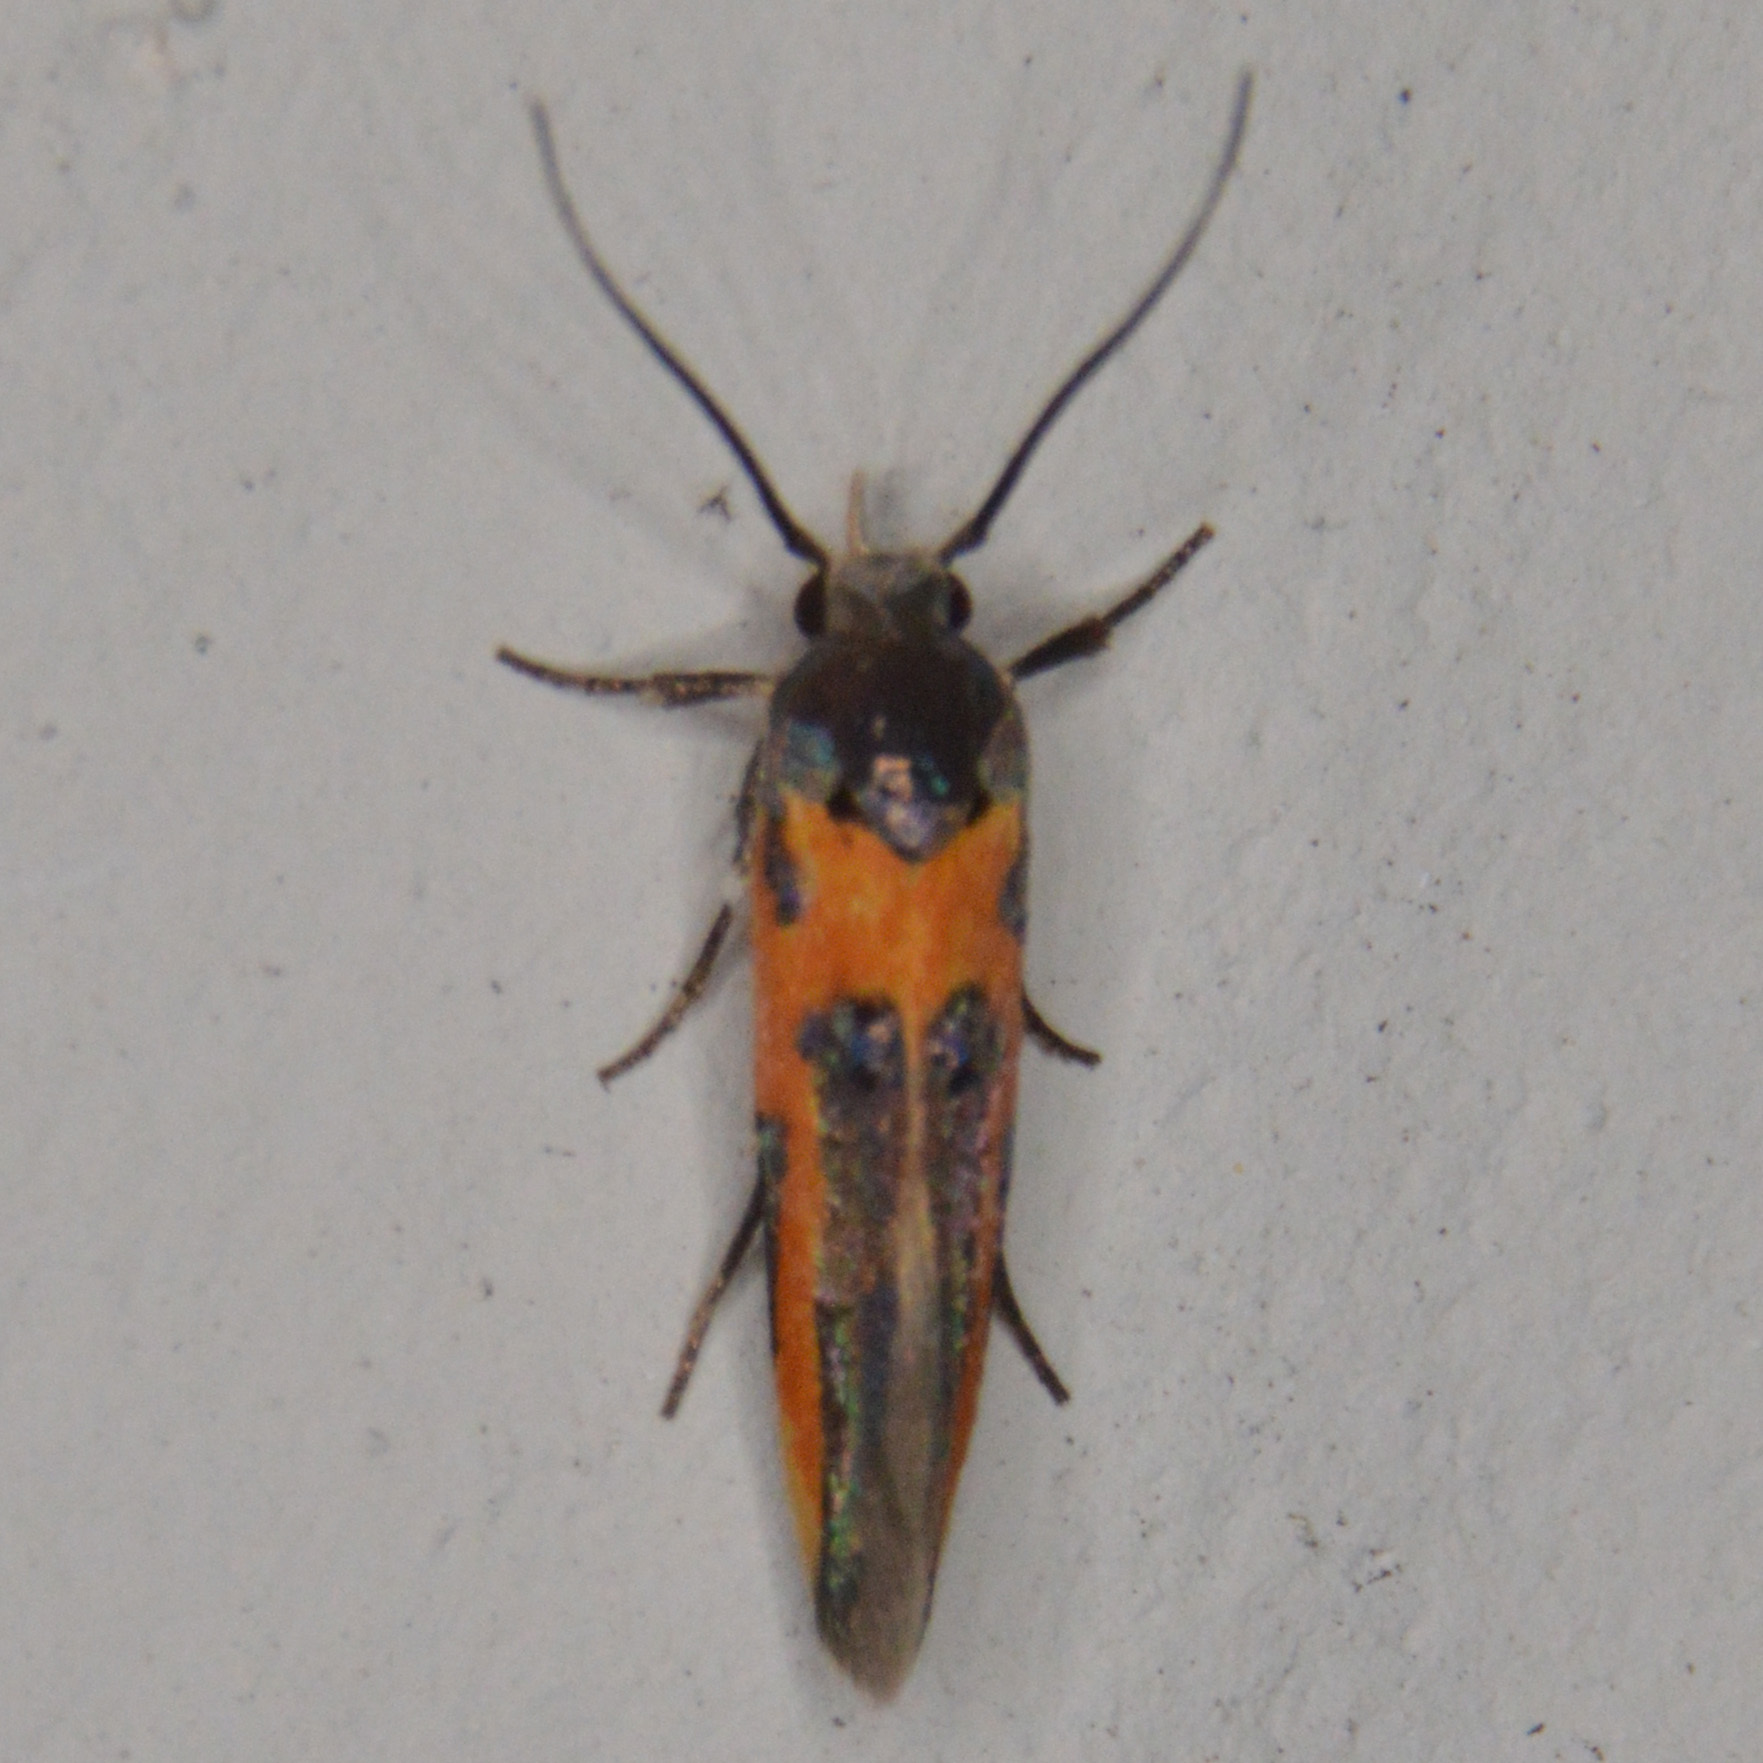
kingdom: Animalia
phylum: Arthropoda
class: Insecta
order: Lepidoptera
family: Cosmopterigidae
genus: Euclemensia
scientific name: Euclemensia bassettella
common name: Kermes scale moth
